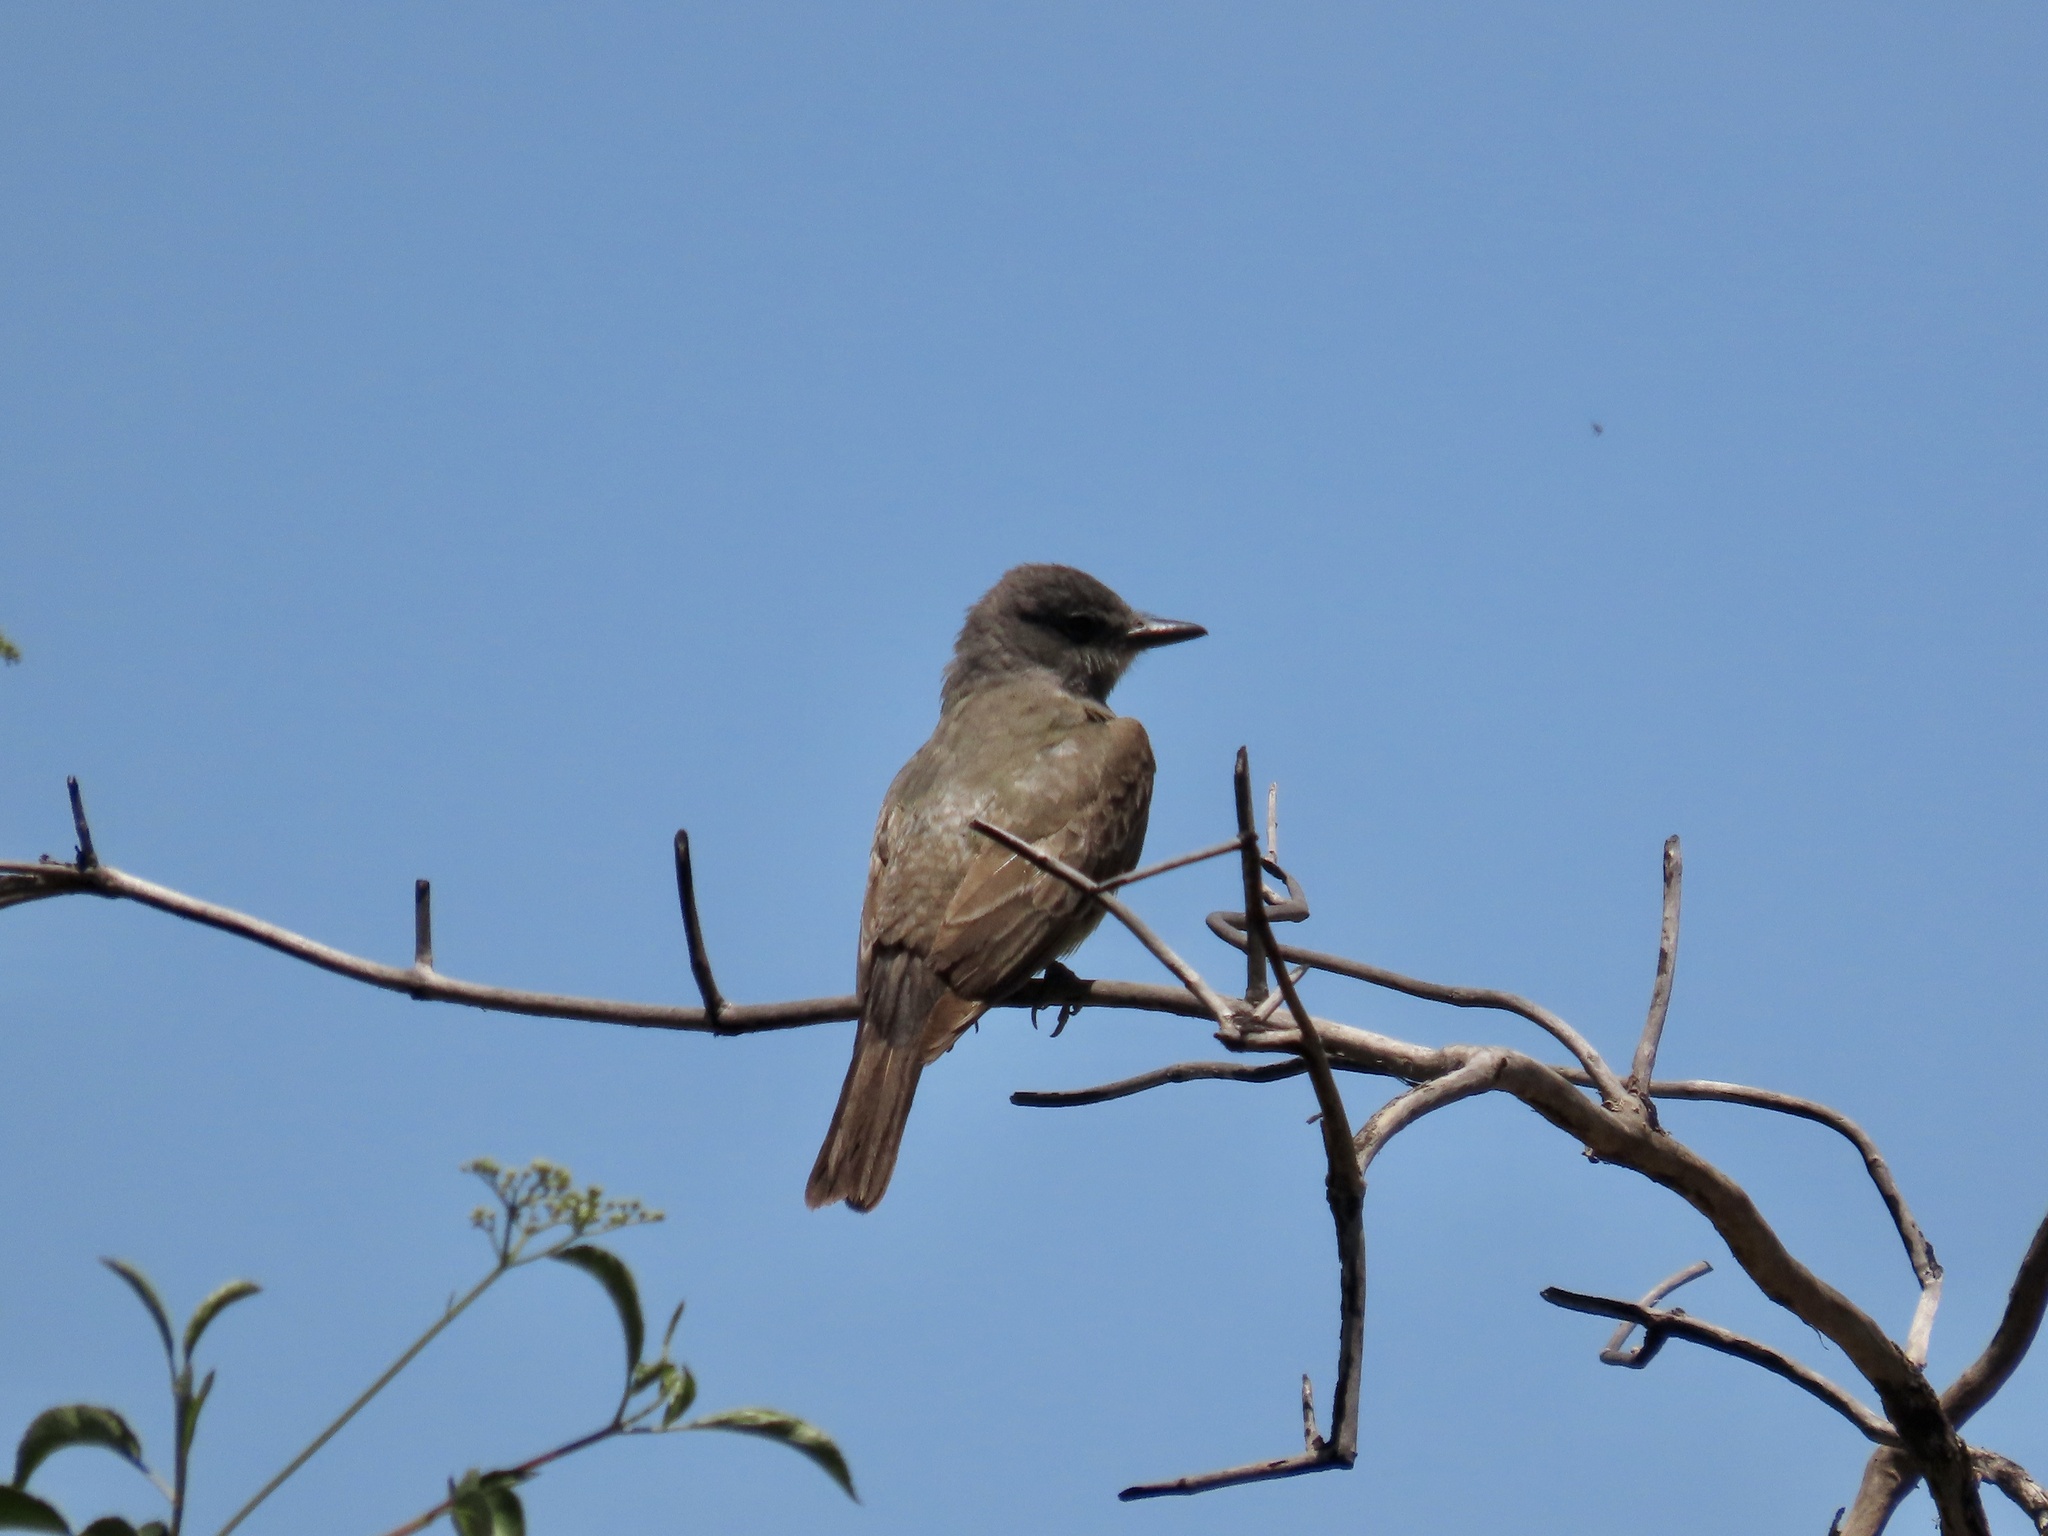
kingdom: Animalia
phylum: Chordata
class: Aves
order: Passeriformes
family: Tyrannidae
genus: Sayornis
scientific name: Sayornis saya
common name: Say's phoebe
